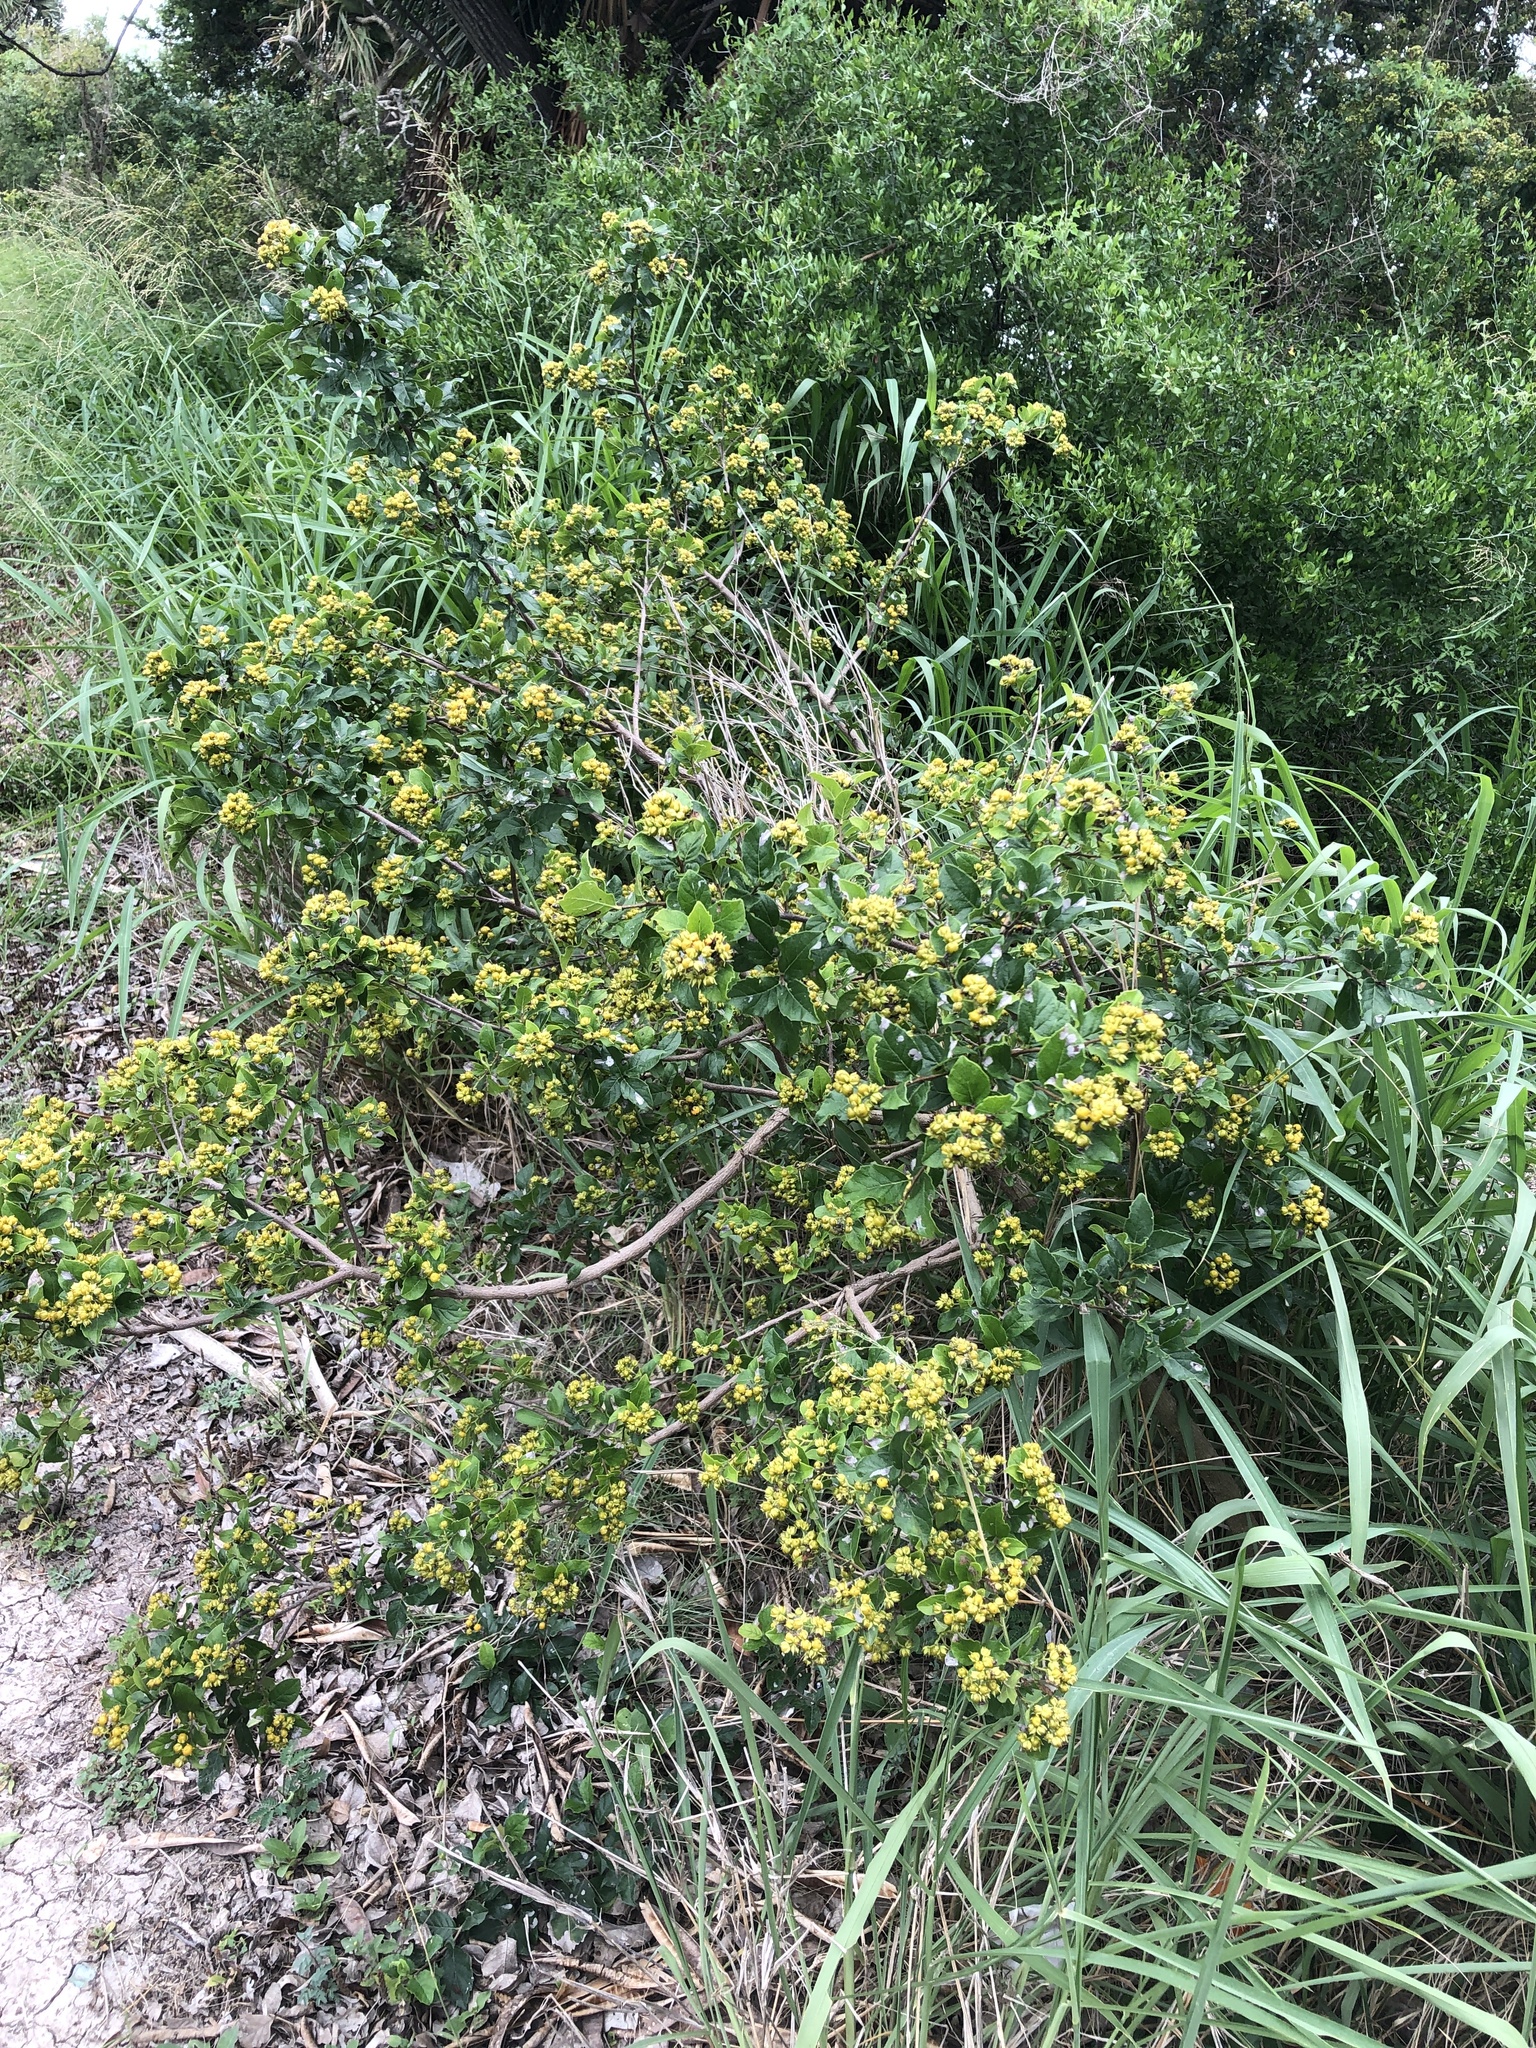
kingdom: Plantae
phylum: Tracheophyta
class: Magnoliopsida
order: Boraginales
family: Ehretiaceae
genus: Ehretia
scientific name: Ehretia anacua
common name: Sugarberry
